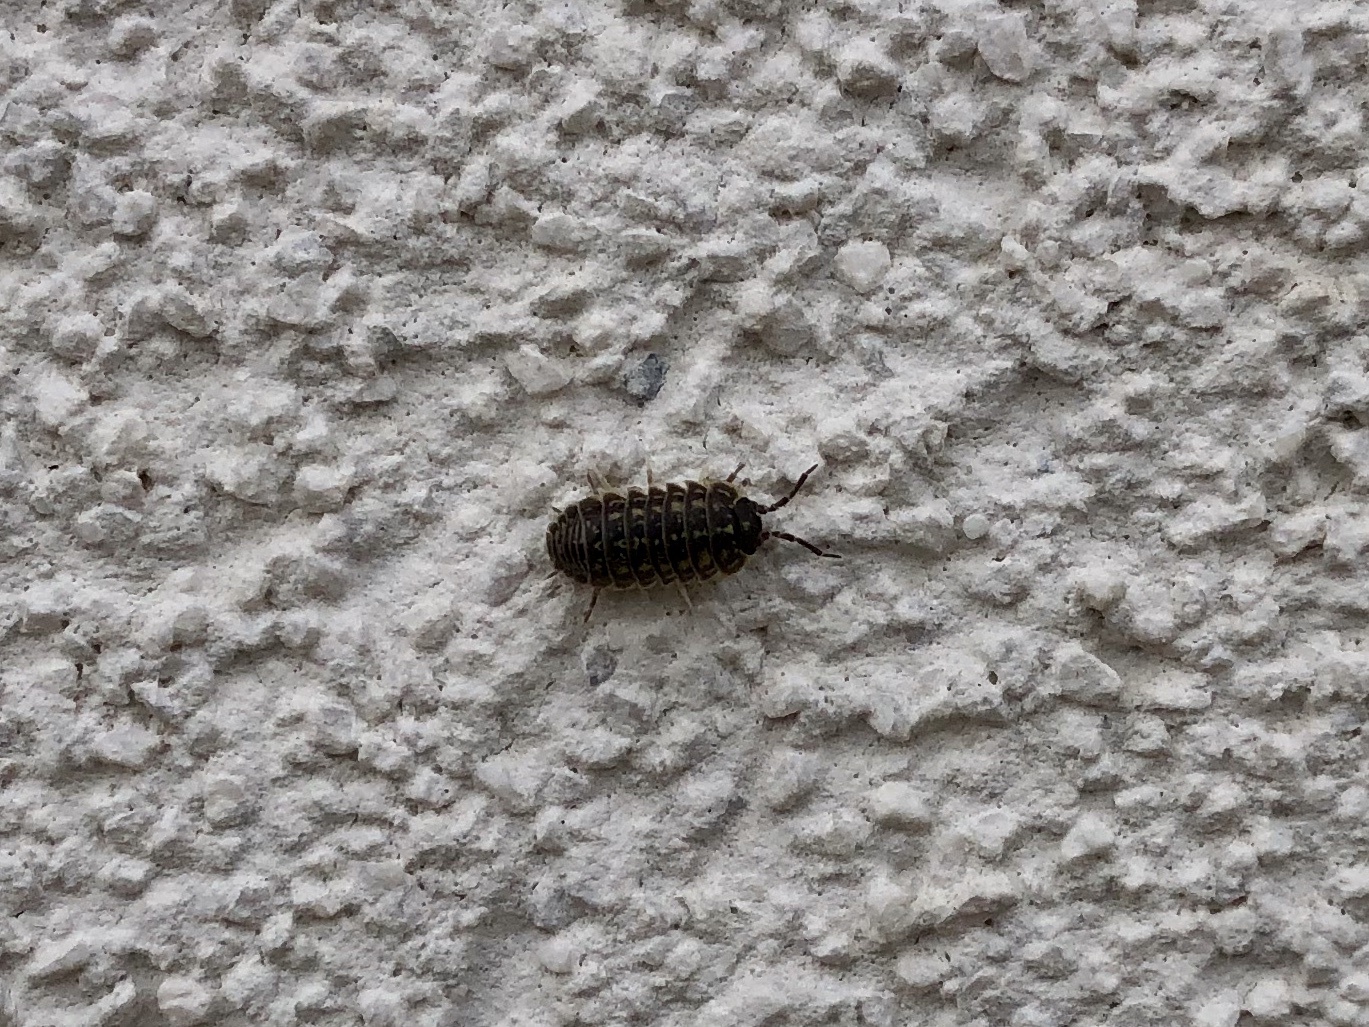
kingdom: Animalia
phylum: Arthropoda
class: Malacostraca
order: Isopoda
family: Armadillidiidae
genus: Armadillidium
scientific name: Armadillidium versicolor
